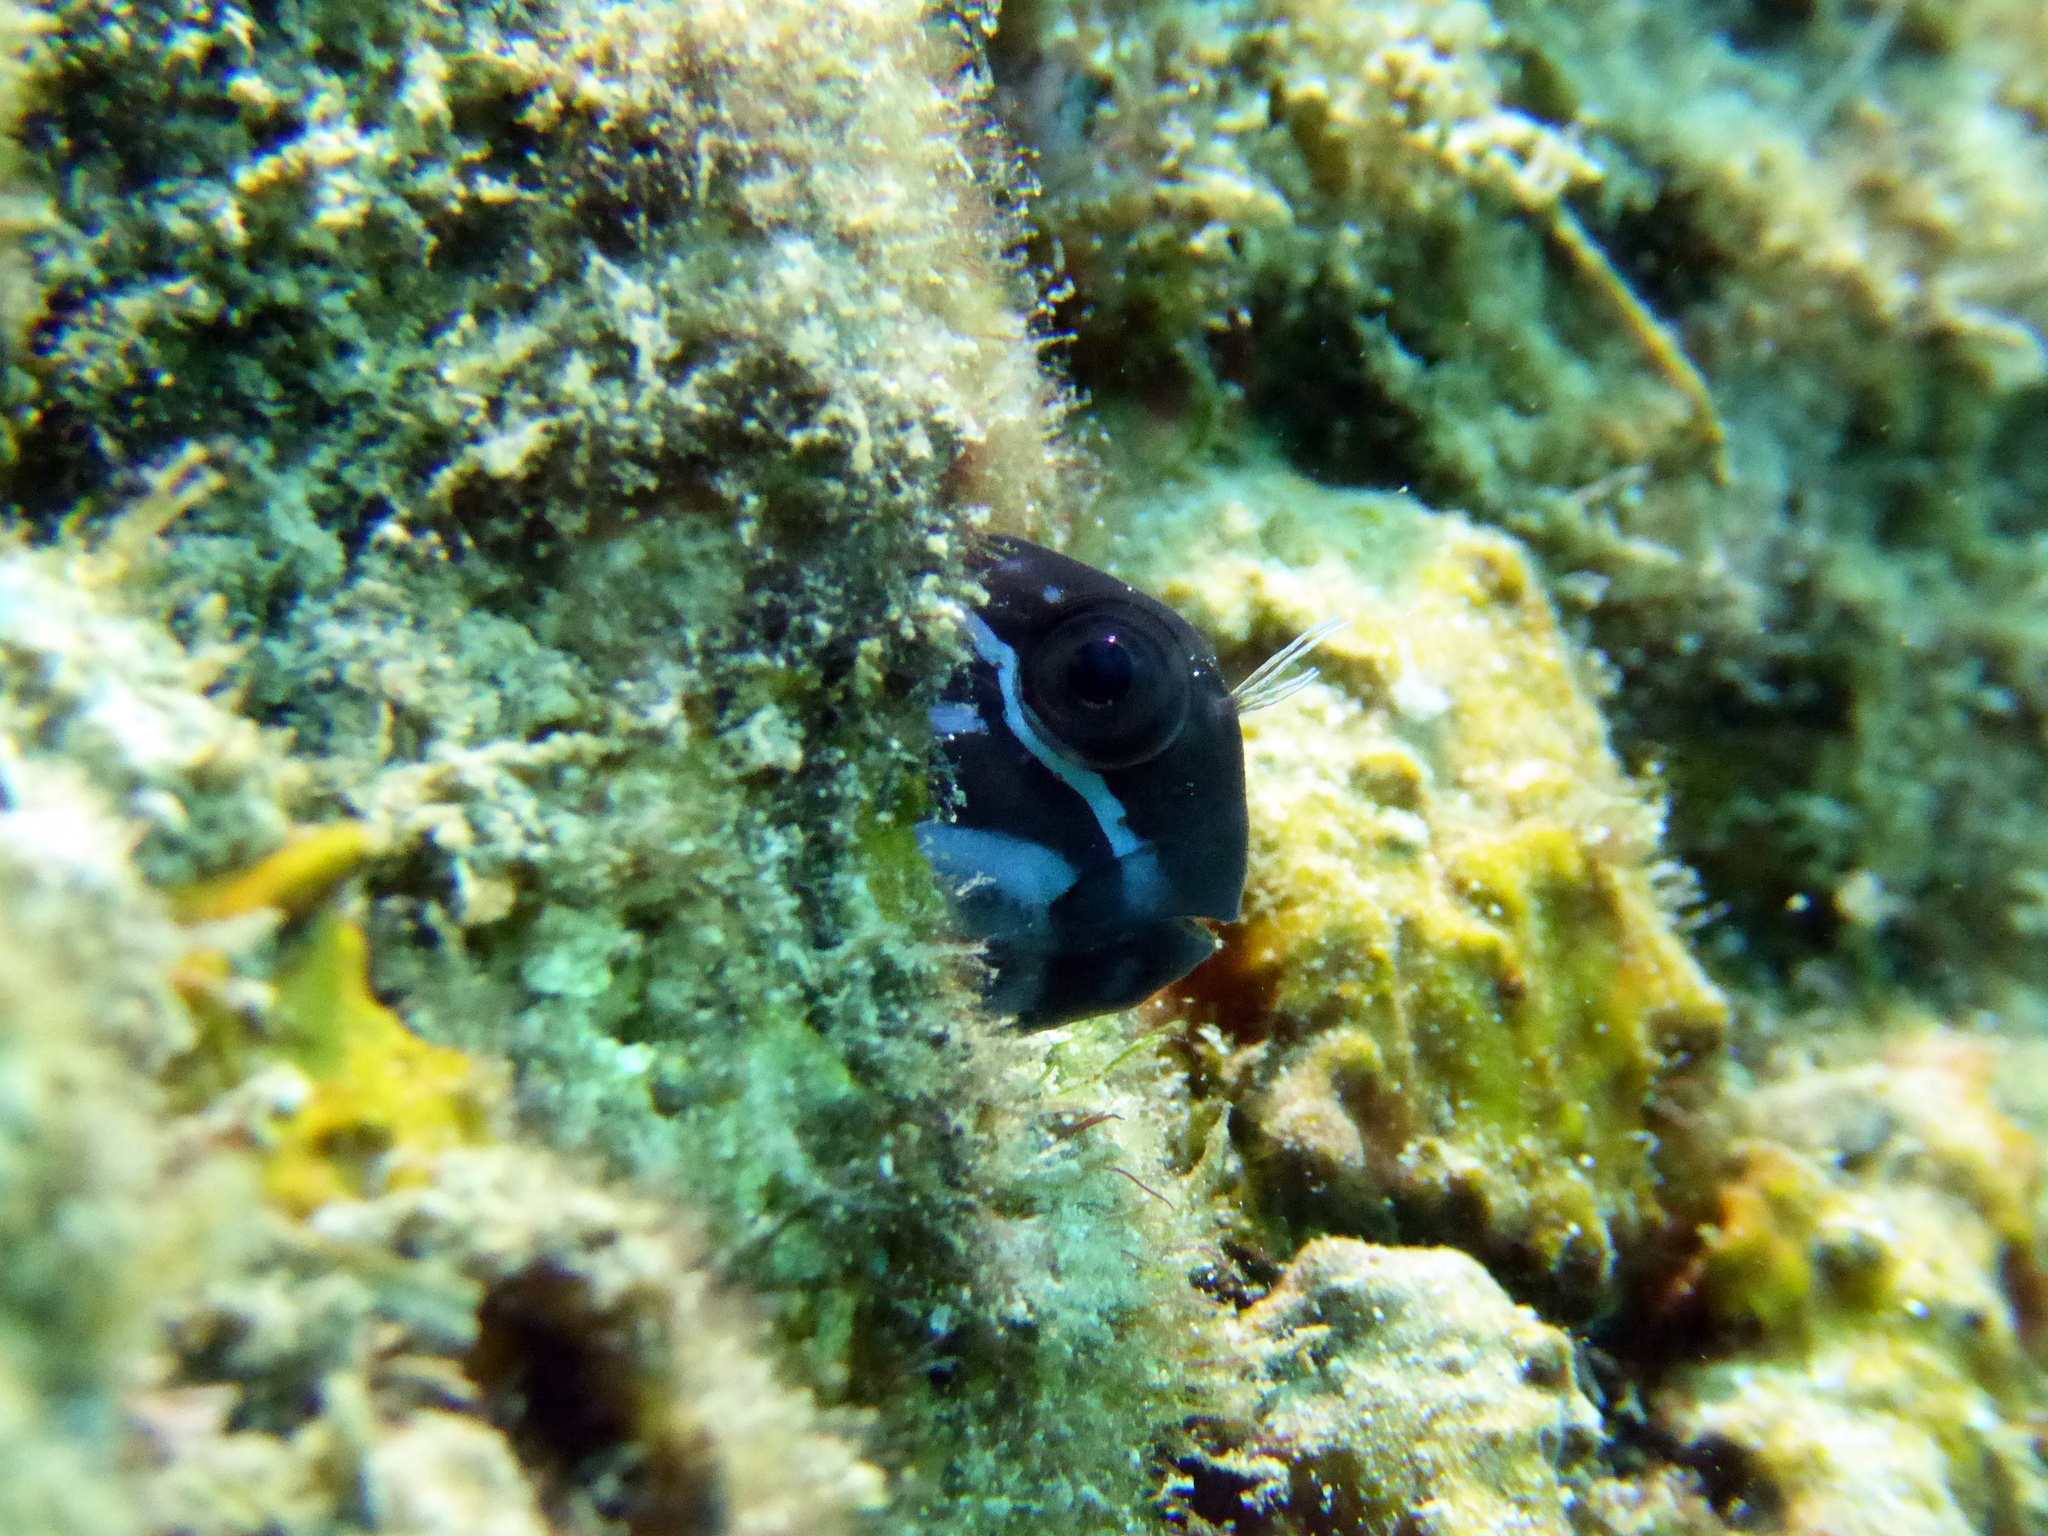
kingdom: Animalia
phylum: Chordata
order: Perciformes
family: Blenniidae
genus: Ecsenius
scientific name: Ecsenius namiyei
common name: Black comb-tooth
